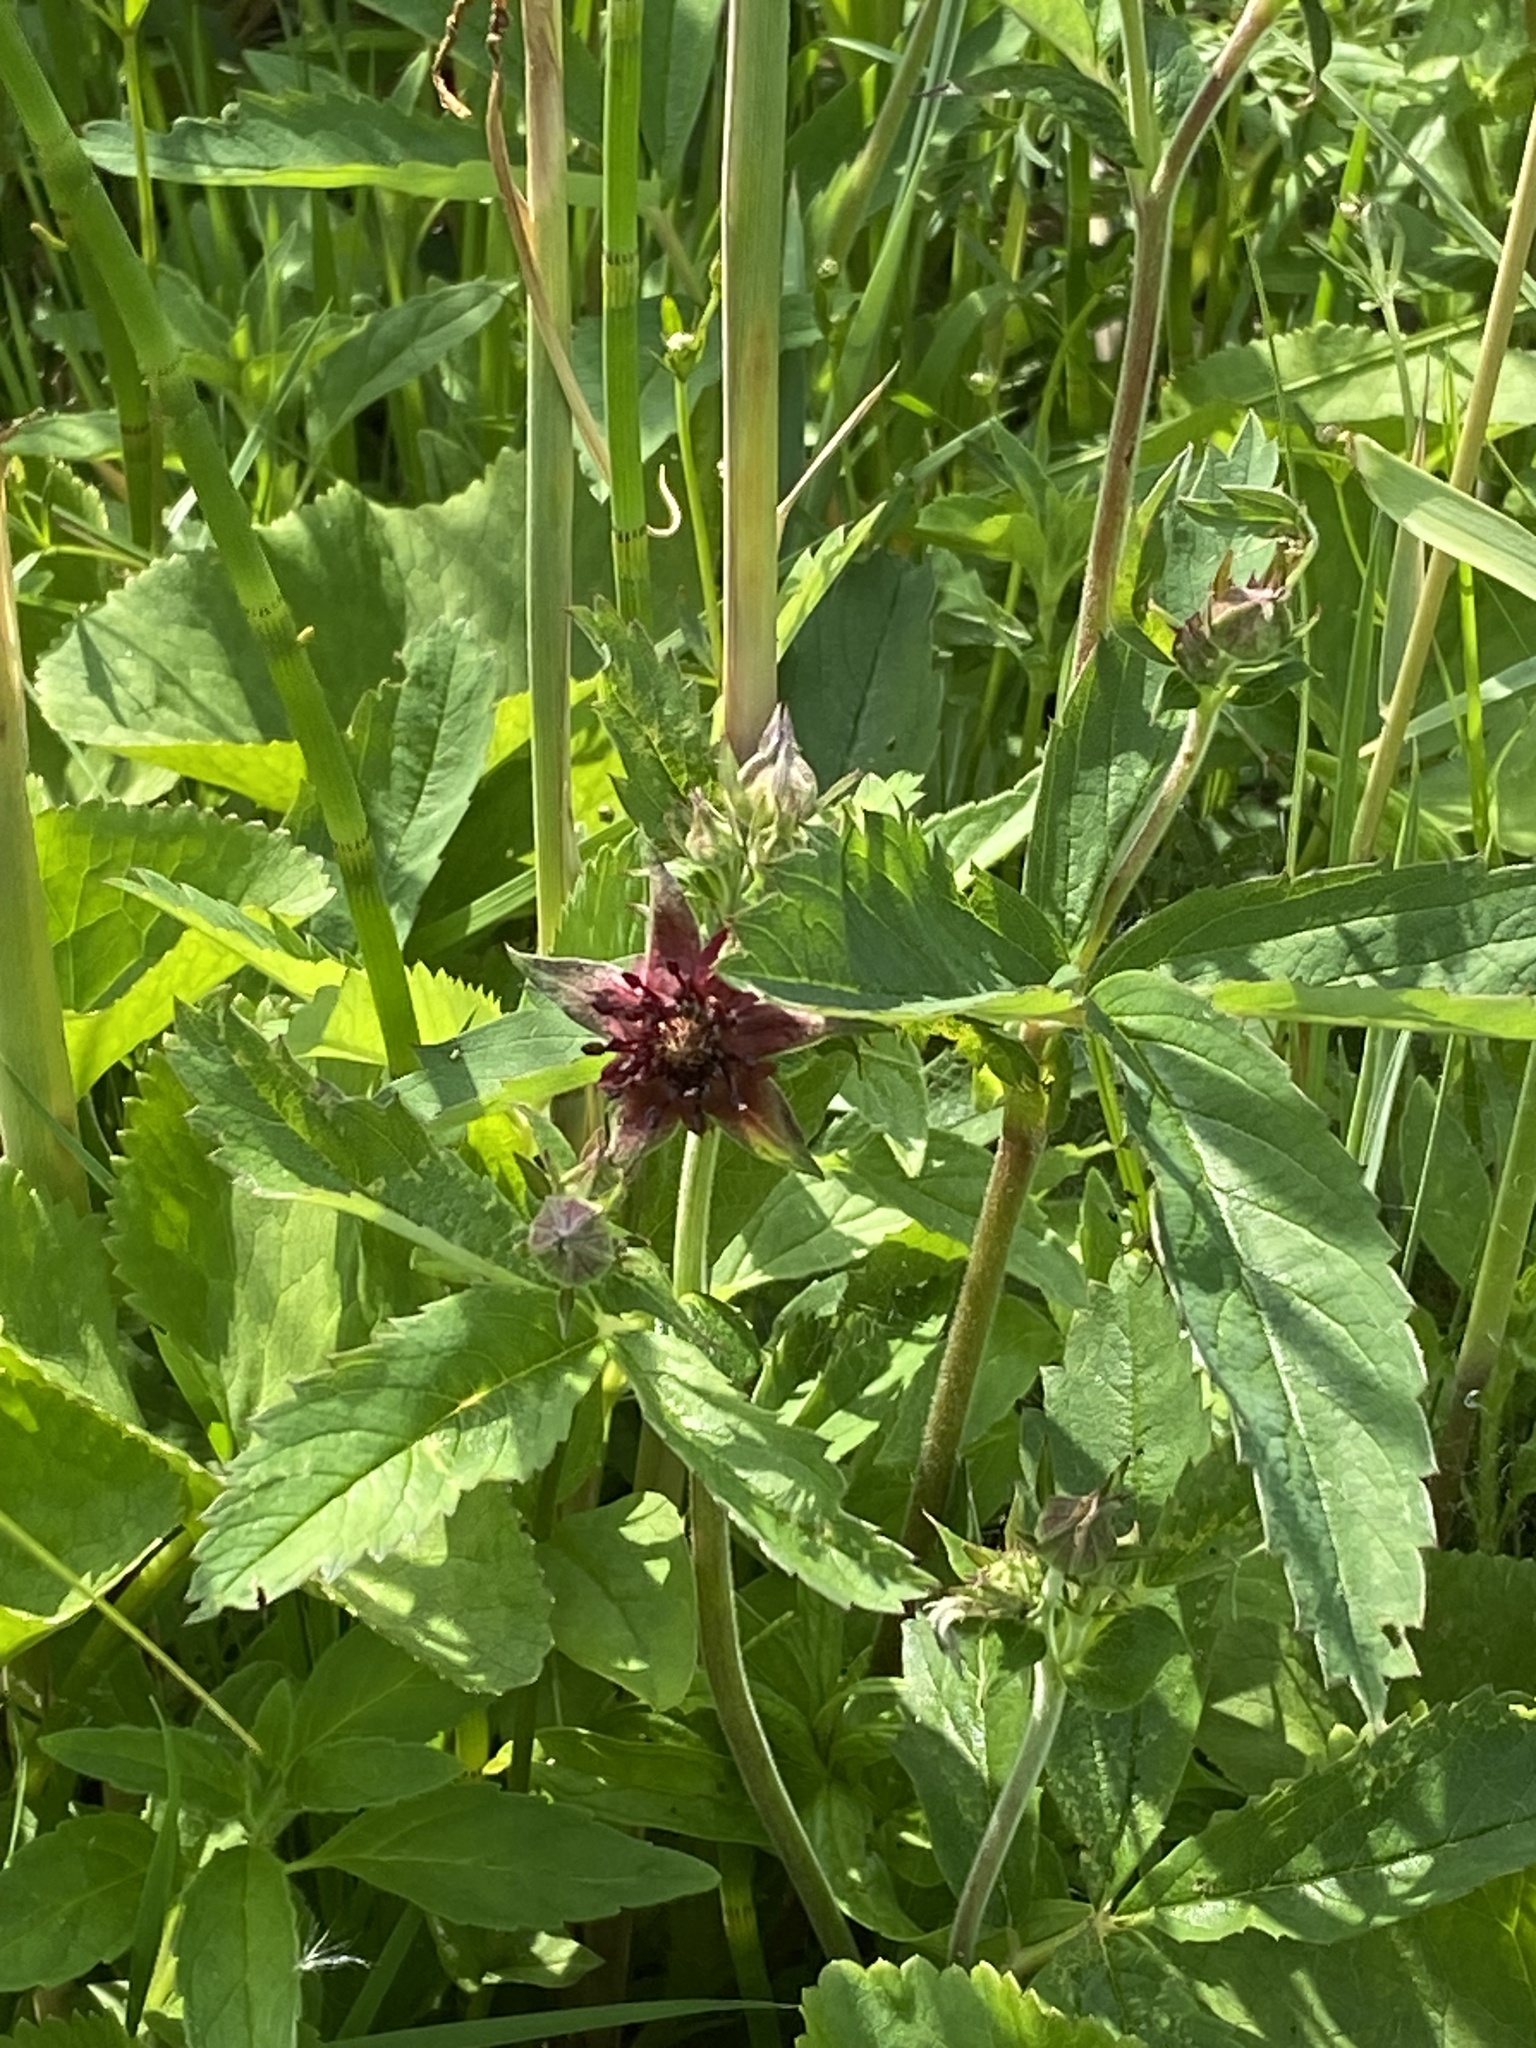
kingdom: Plantae
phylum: Tracheophyta
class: Magnoliopsida
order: Rosales
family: Rosaceae
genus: Comarum
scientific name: Comarum palustre
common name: Marsh cinquefoil
